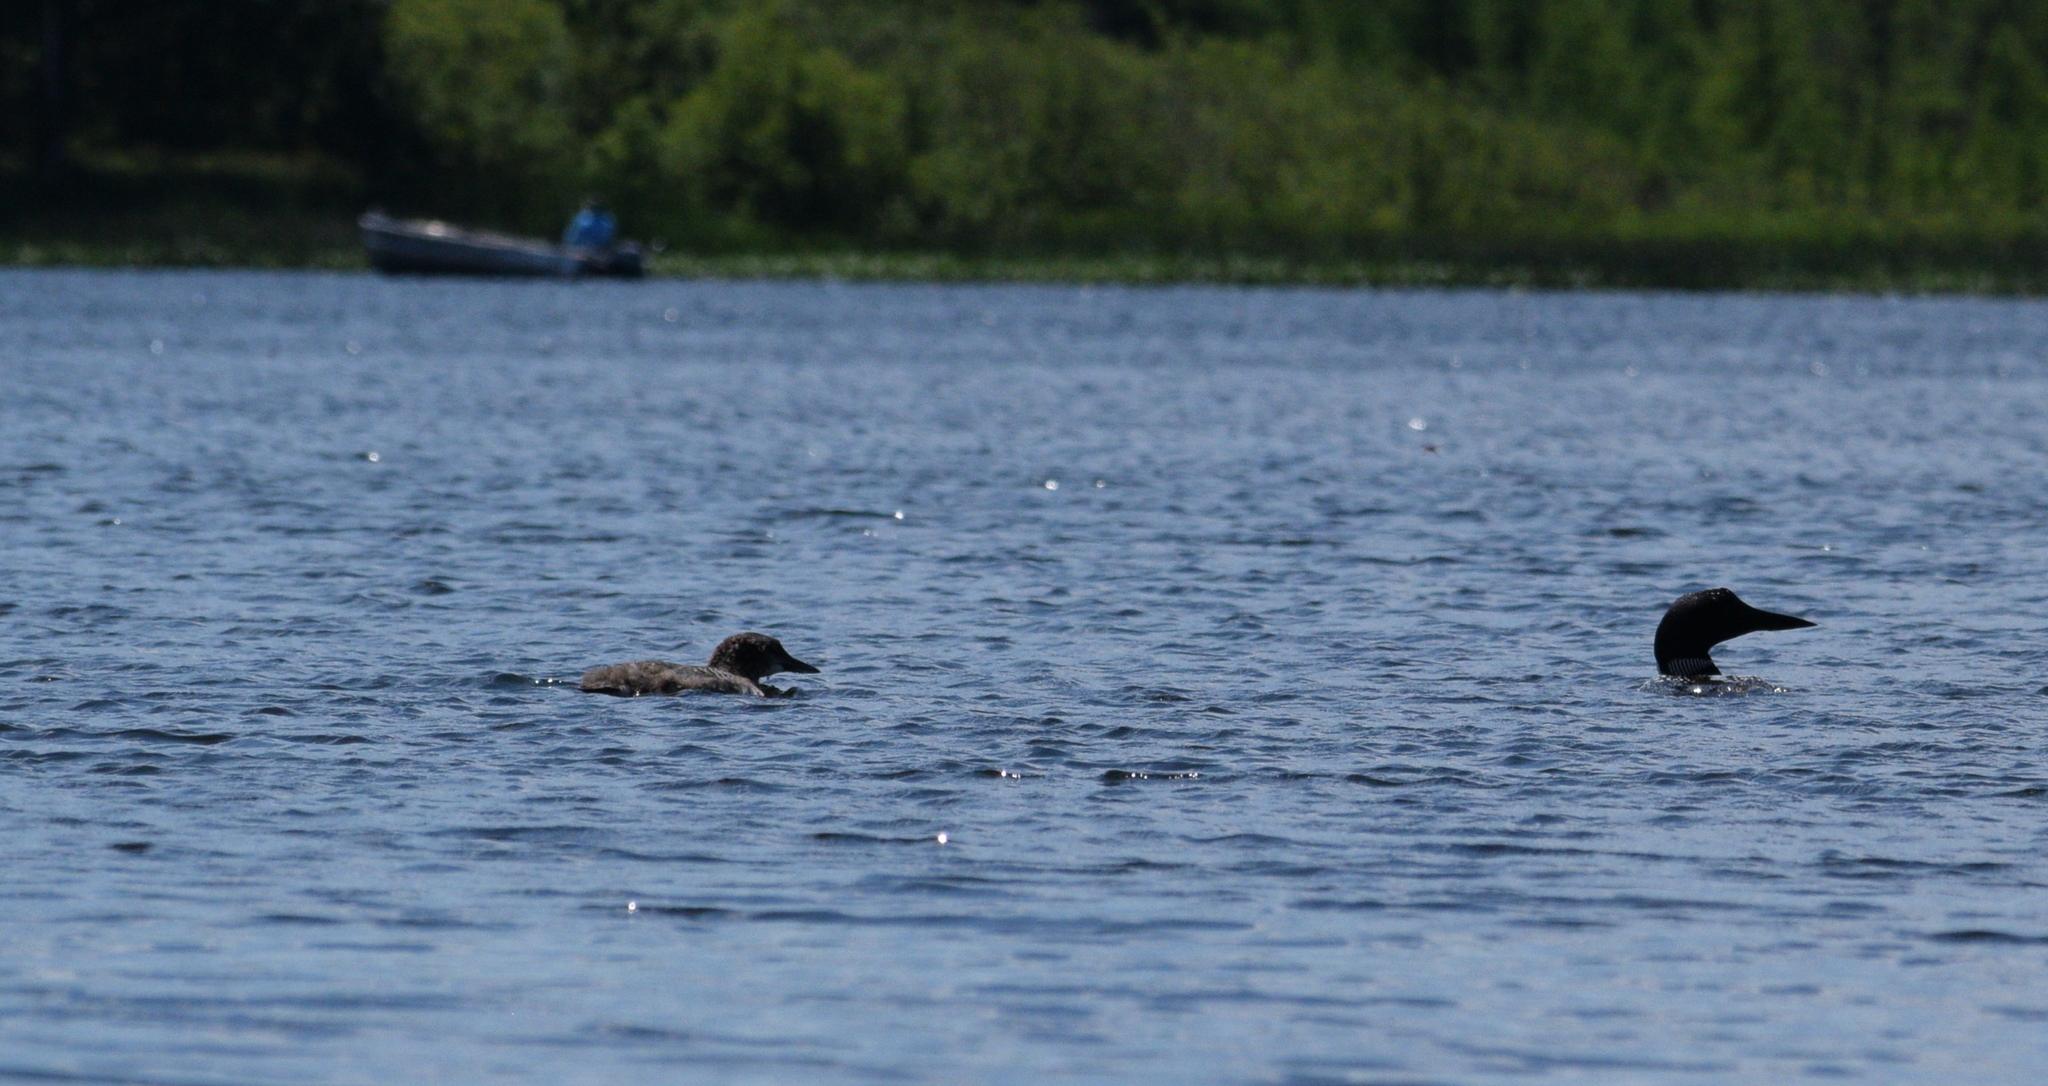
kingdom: Animalia
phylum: Chordata
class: Aves
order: Gaviiformes
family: Gaviidae
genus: Gavia
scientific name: Gavia immer
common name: Common loon
